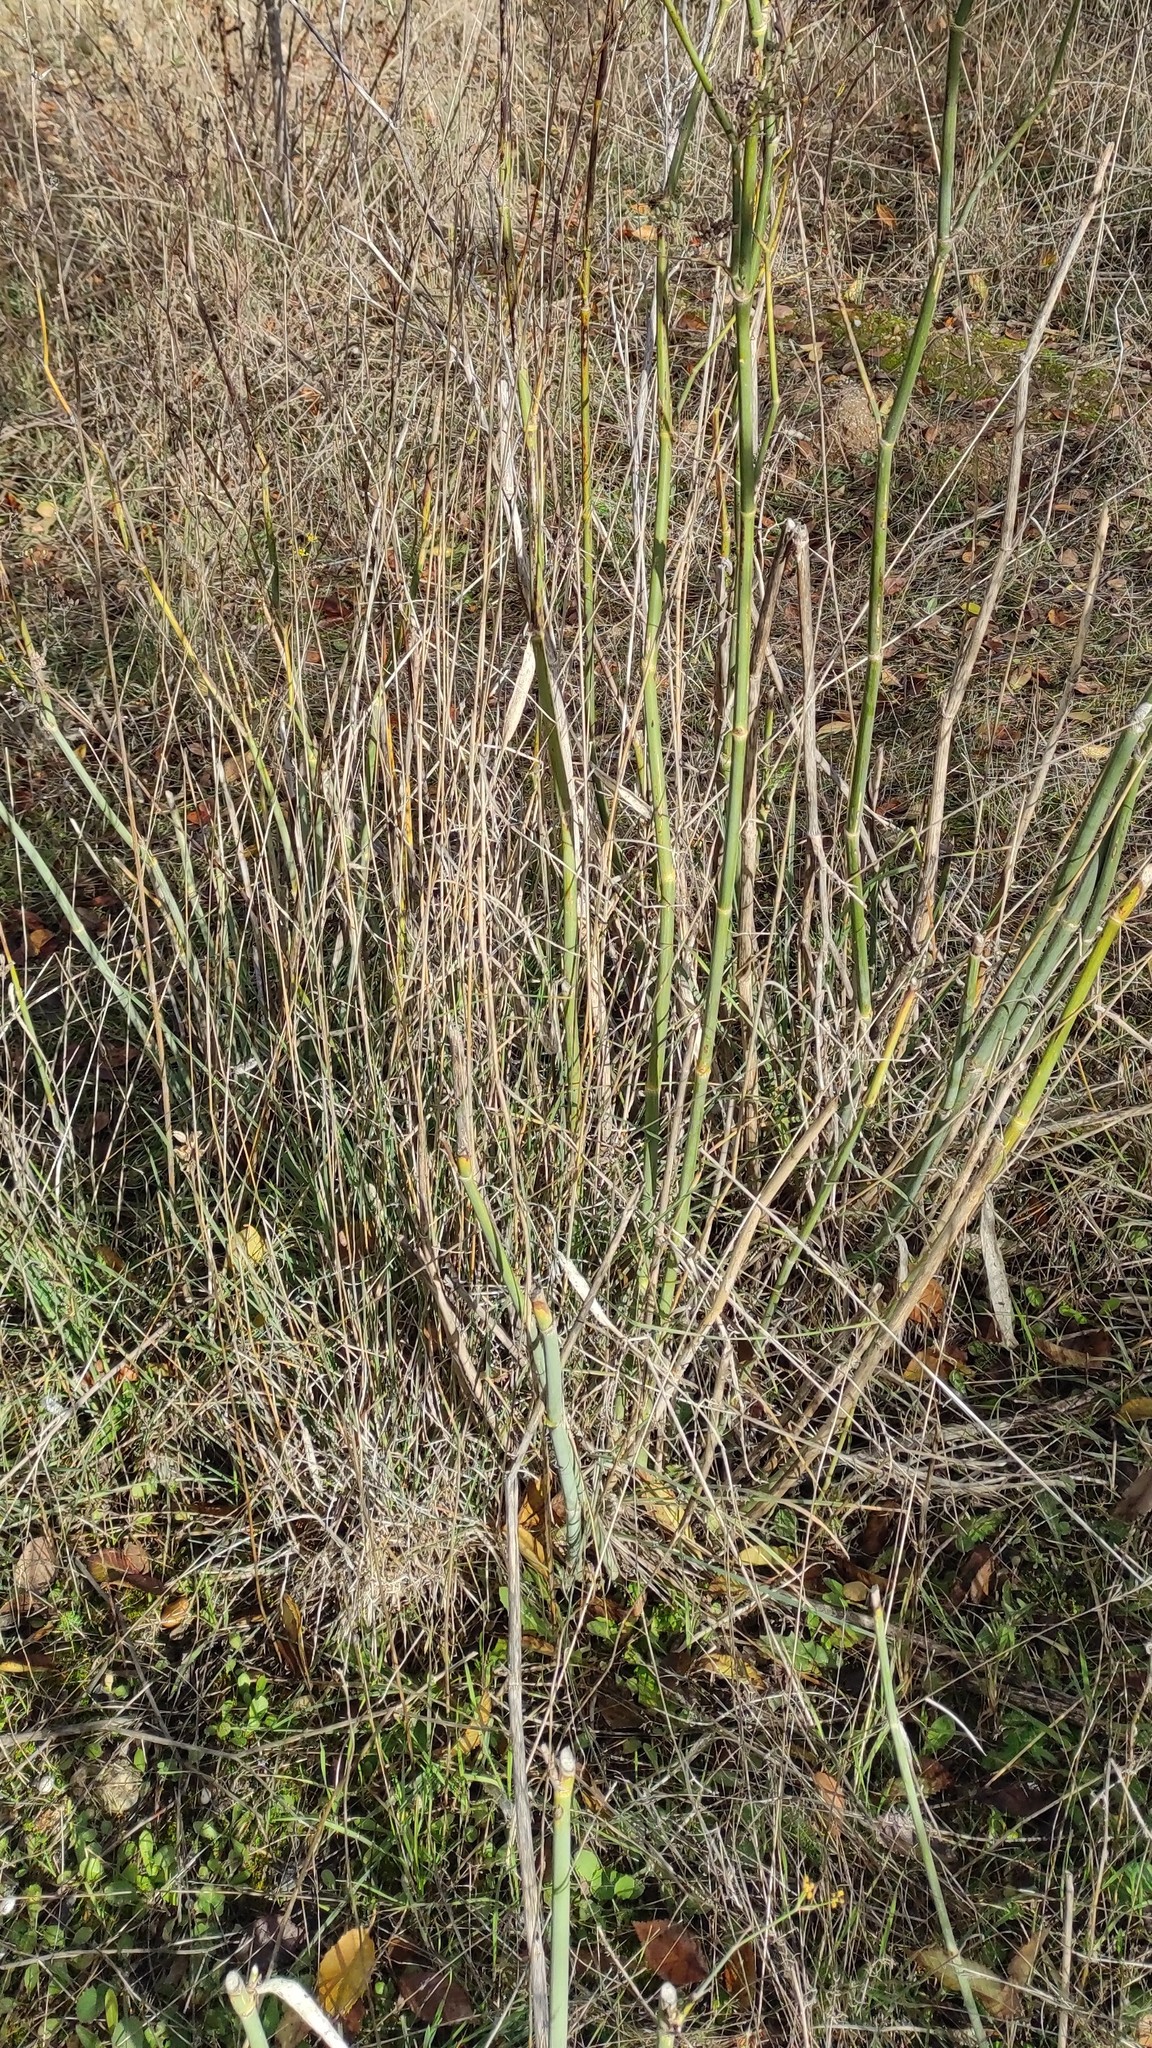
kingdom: Plantae
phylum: Tracheophyta
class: Magnoliopsida
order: Apiales
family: Apiaceae
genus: Foeniculum
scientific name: Foeniculum vulgare
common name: Fennel
